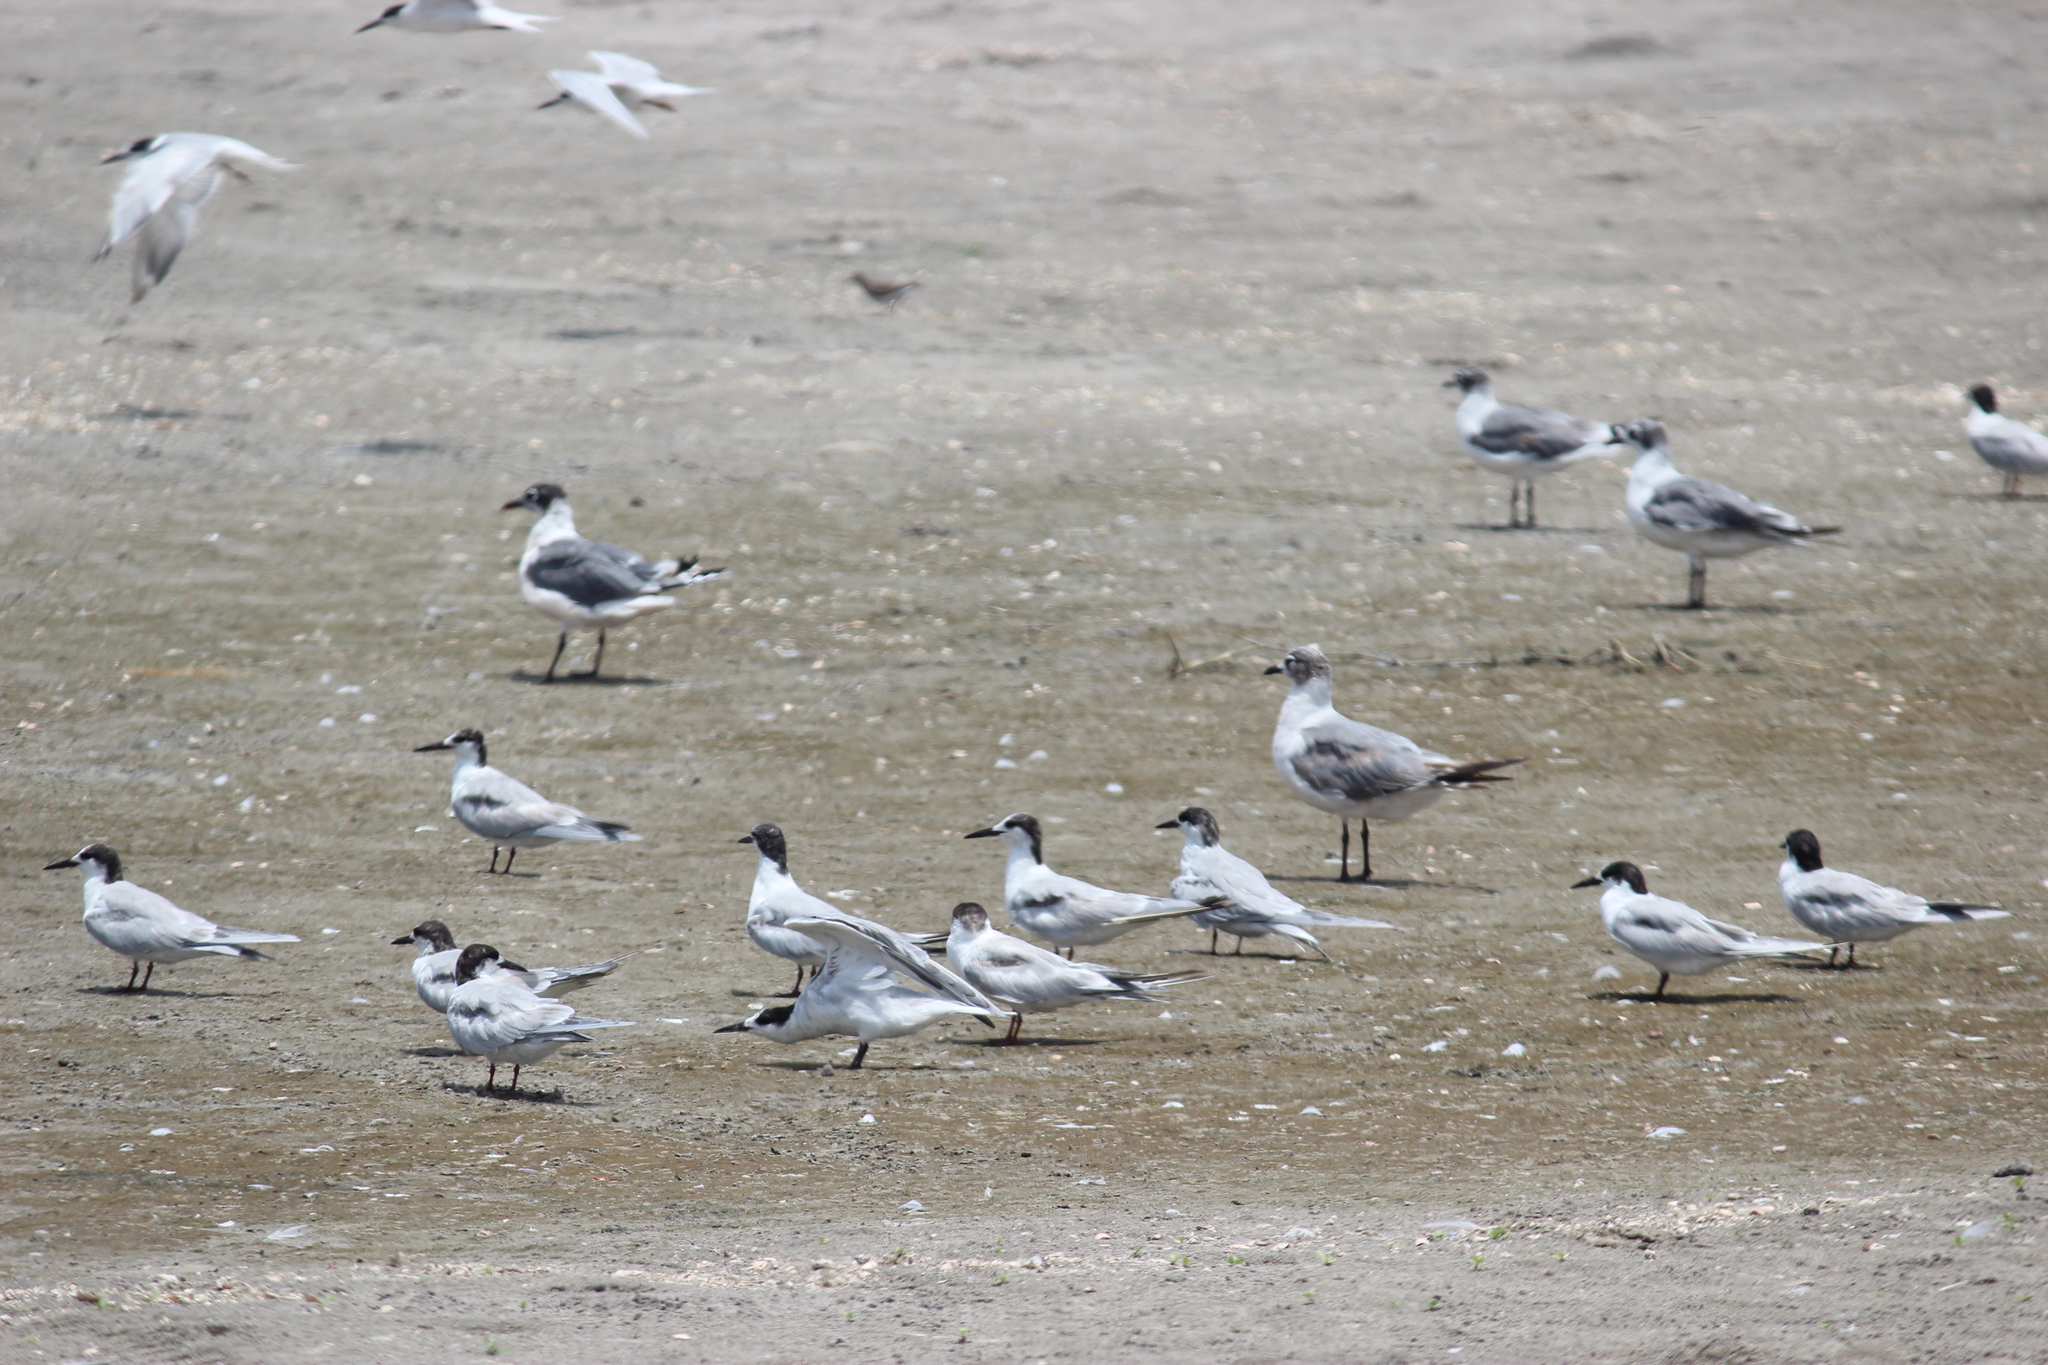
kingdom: Animalia
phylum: Chordata
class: Aves
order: Charadriiformes
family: Laridae
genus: Sterna
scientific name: Sterna hirundo
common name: Common tern
